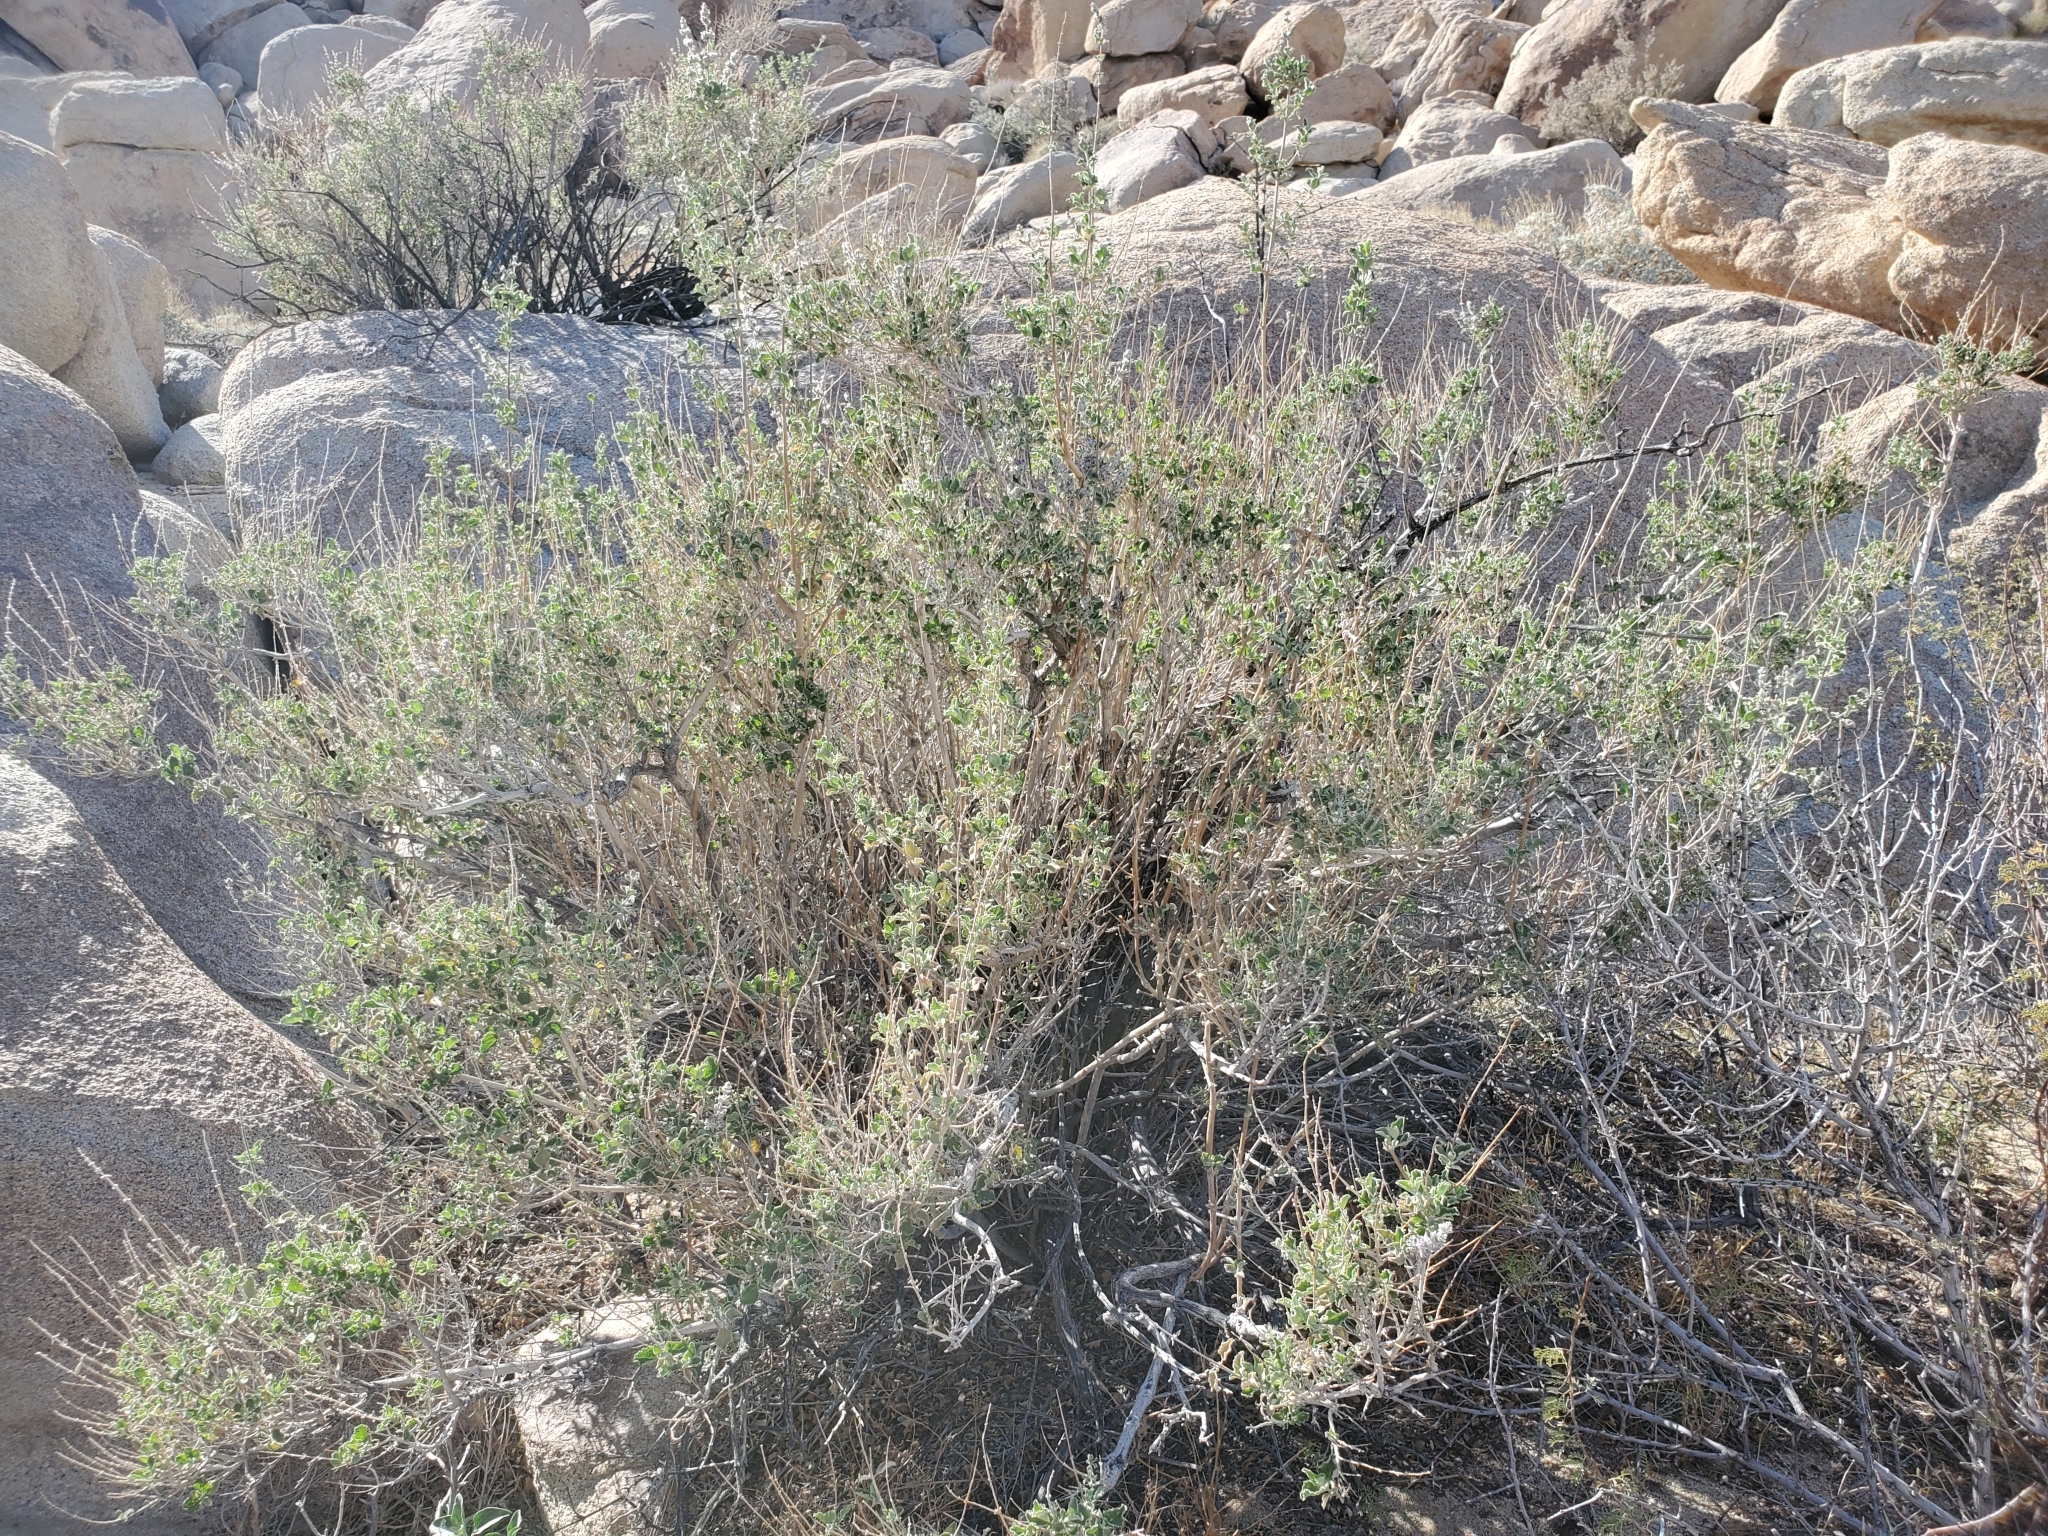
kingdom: Plantae
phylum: Tracheophyta
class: Magnoliopsida
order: Lamiales
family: Lamiaceae
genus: Condea
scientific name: Condea emoryi
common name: Chia
